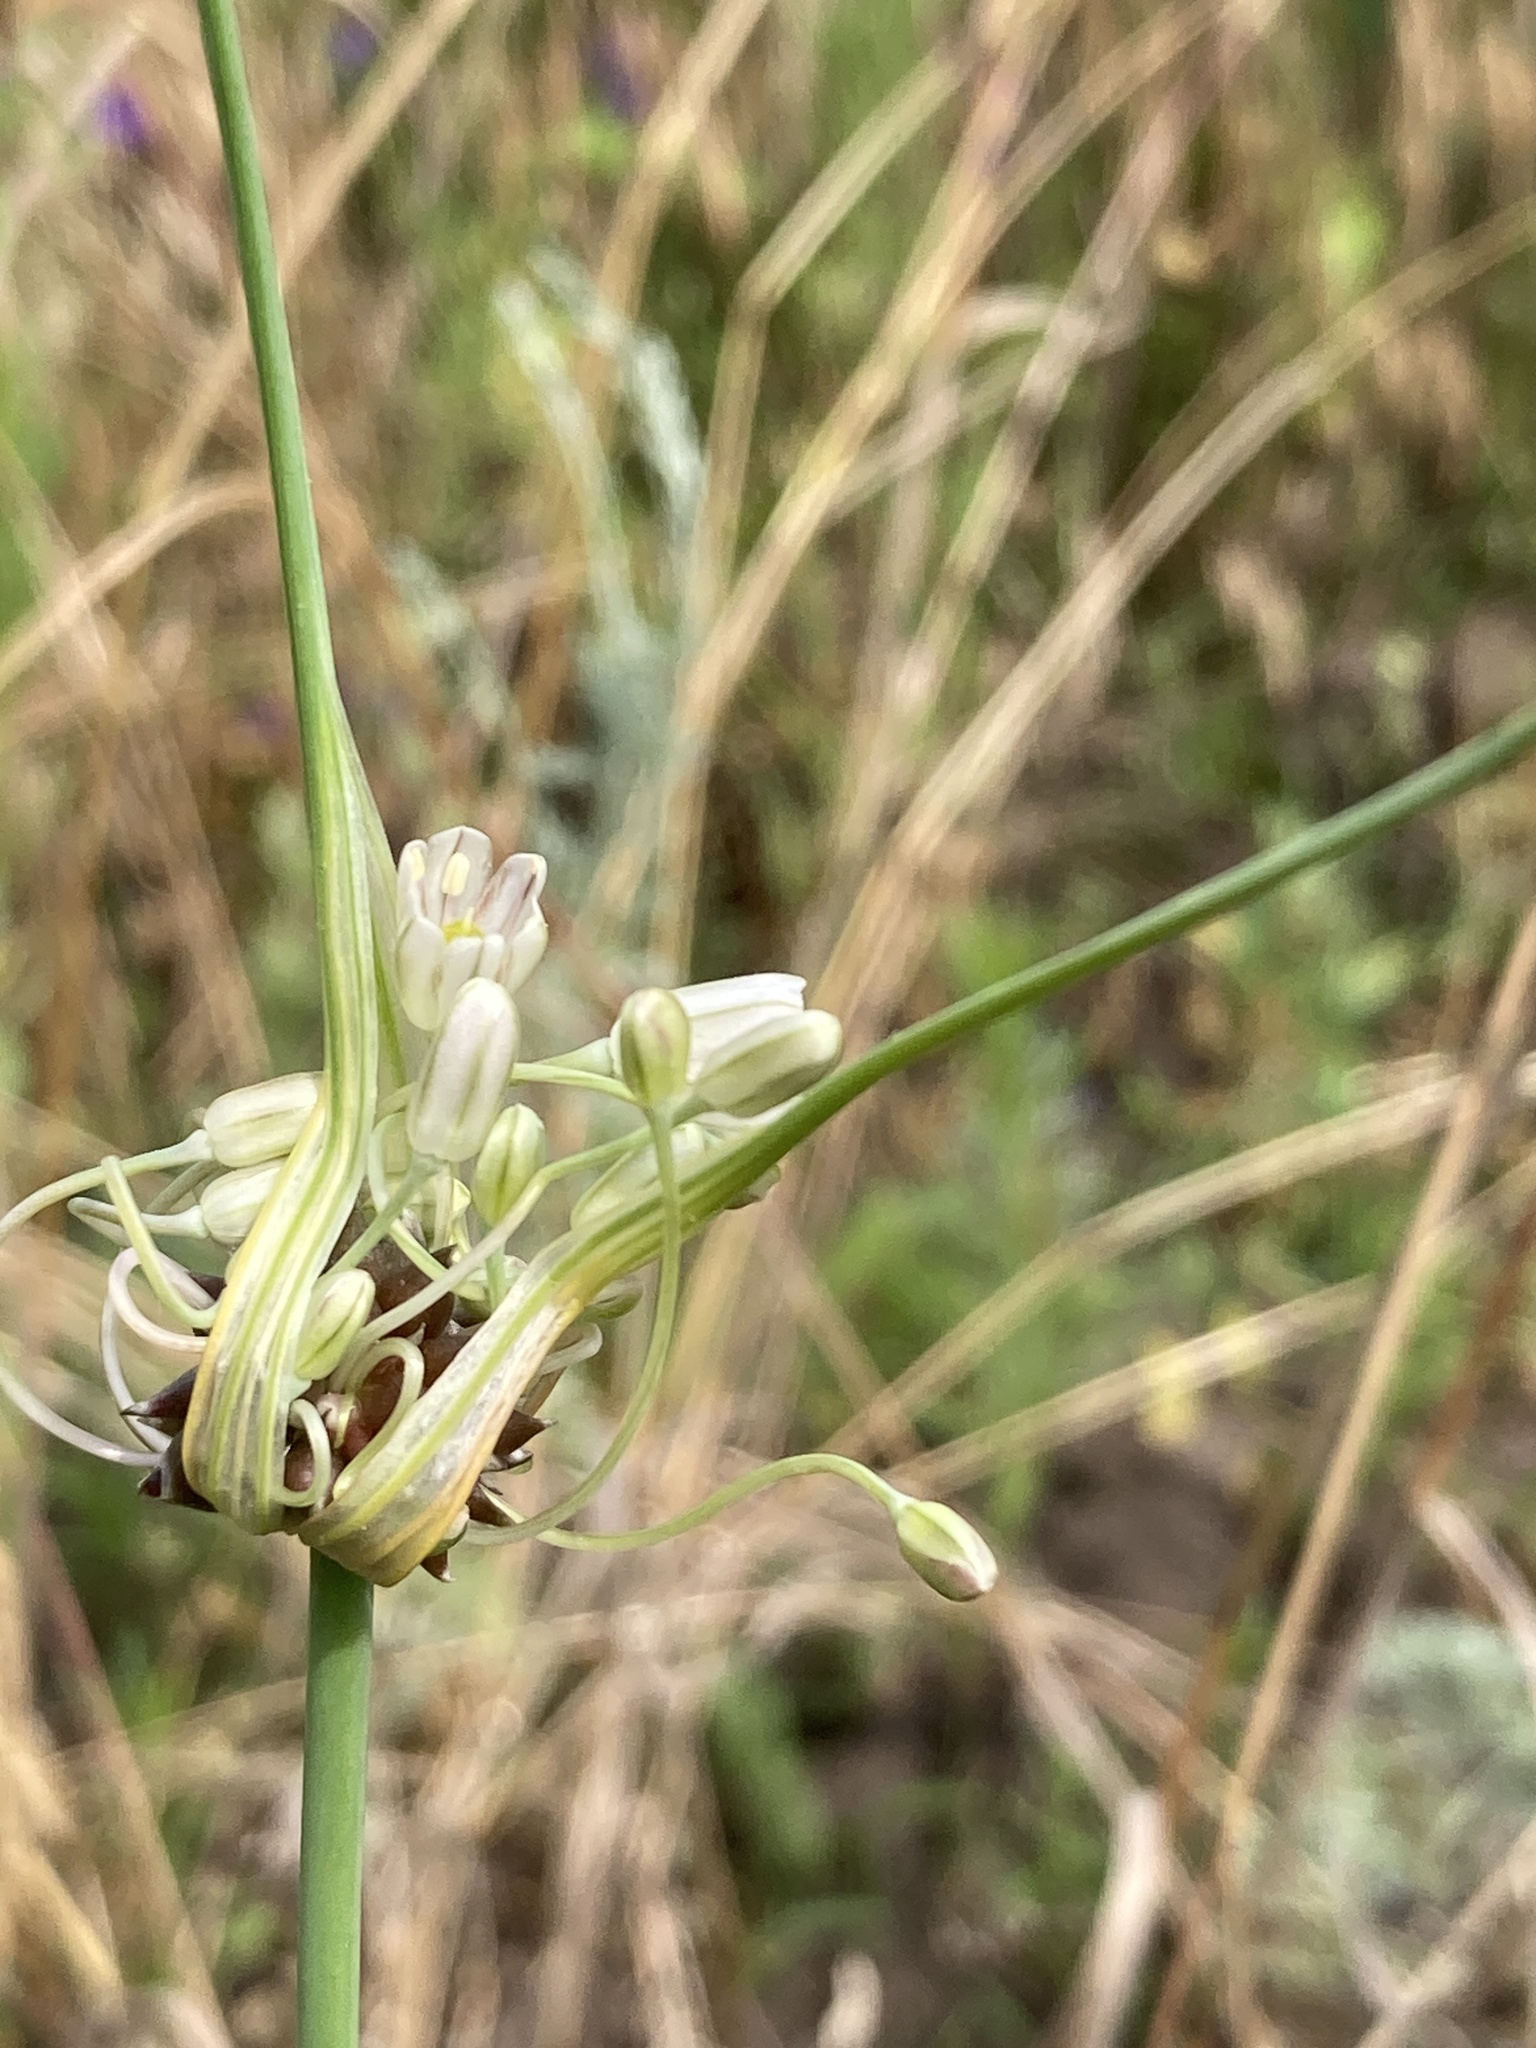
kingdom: Plantae
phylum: Tracheophyta
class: Liliopsida
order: Asparagales
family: Amaryllidaceae
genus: Allium
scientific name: Allium oleraceum
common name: Field garlic
